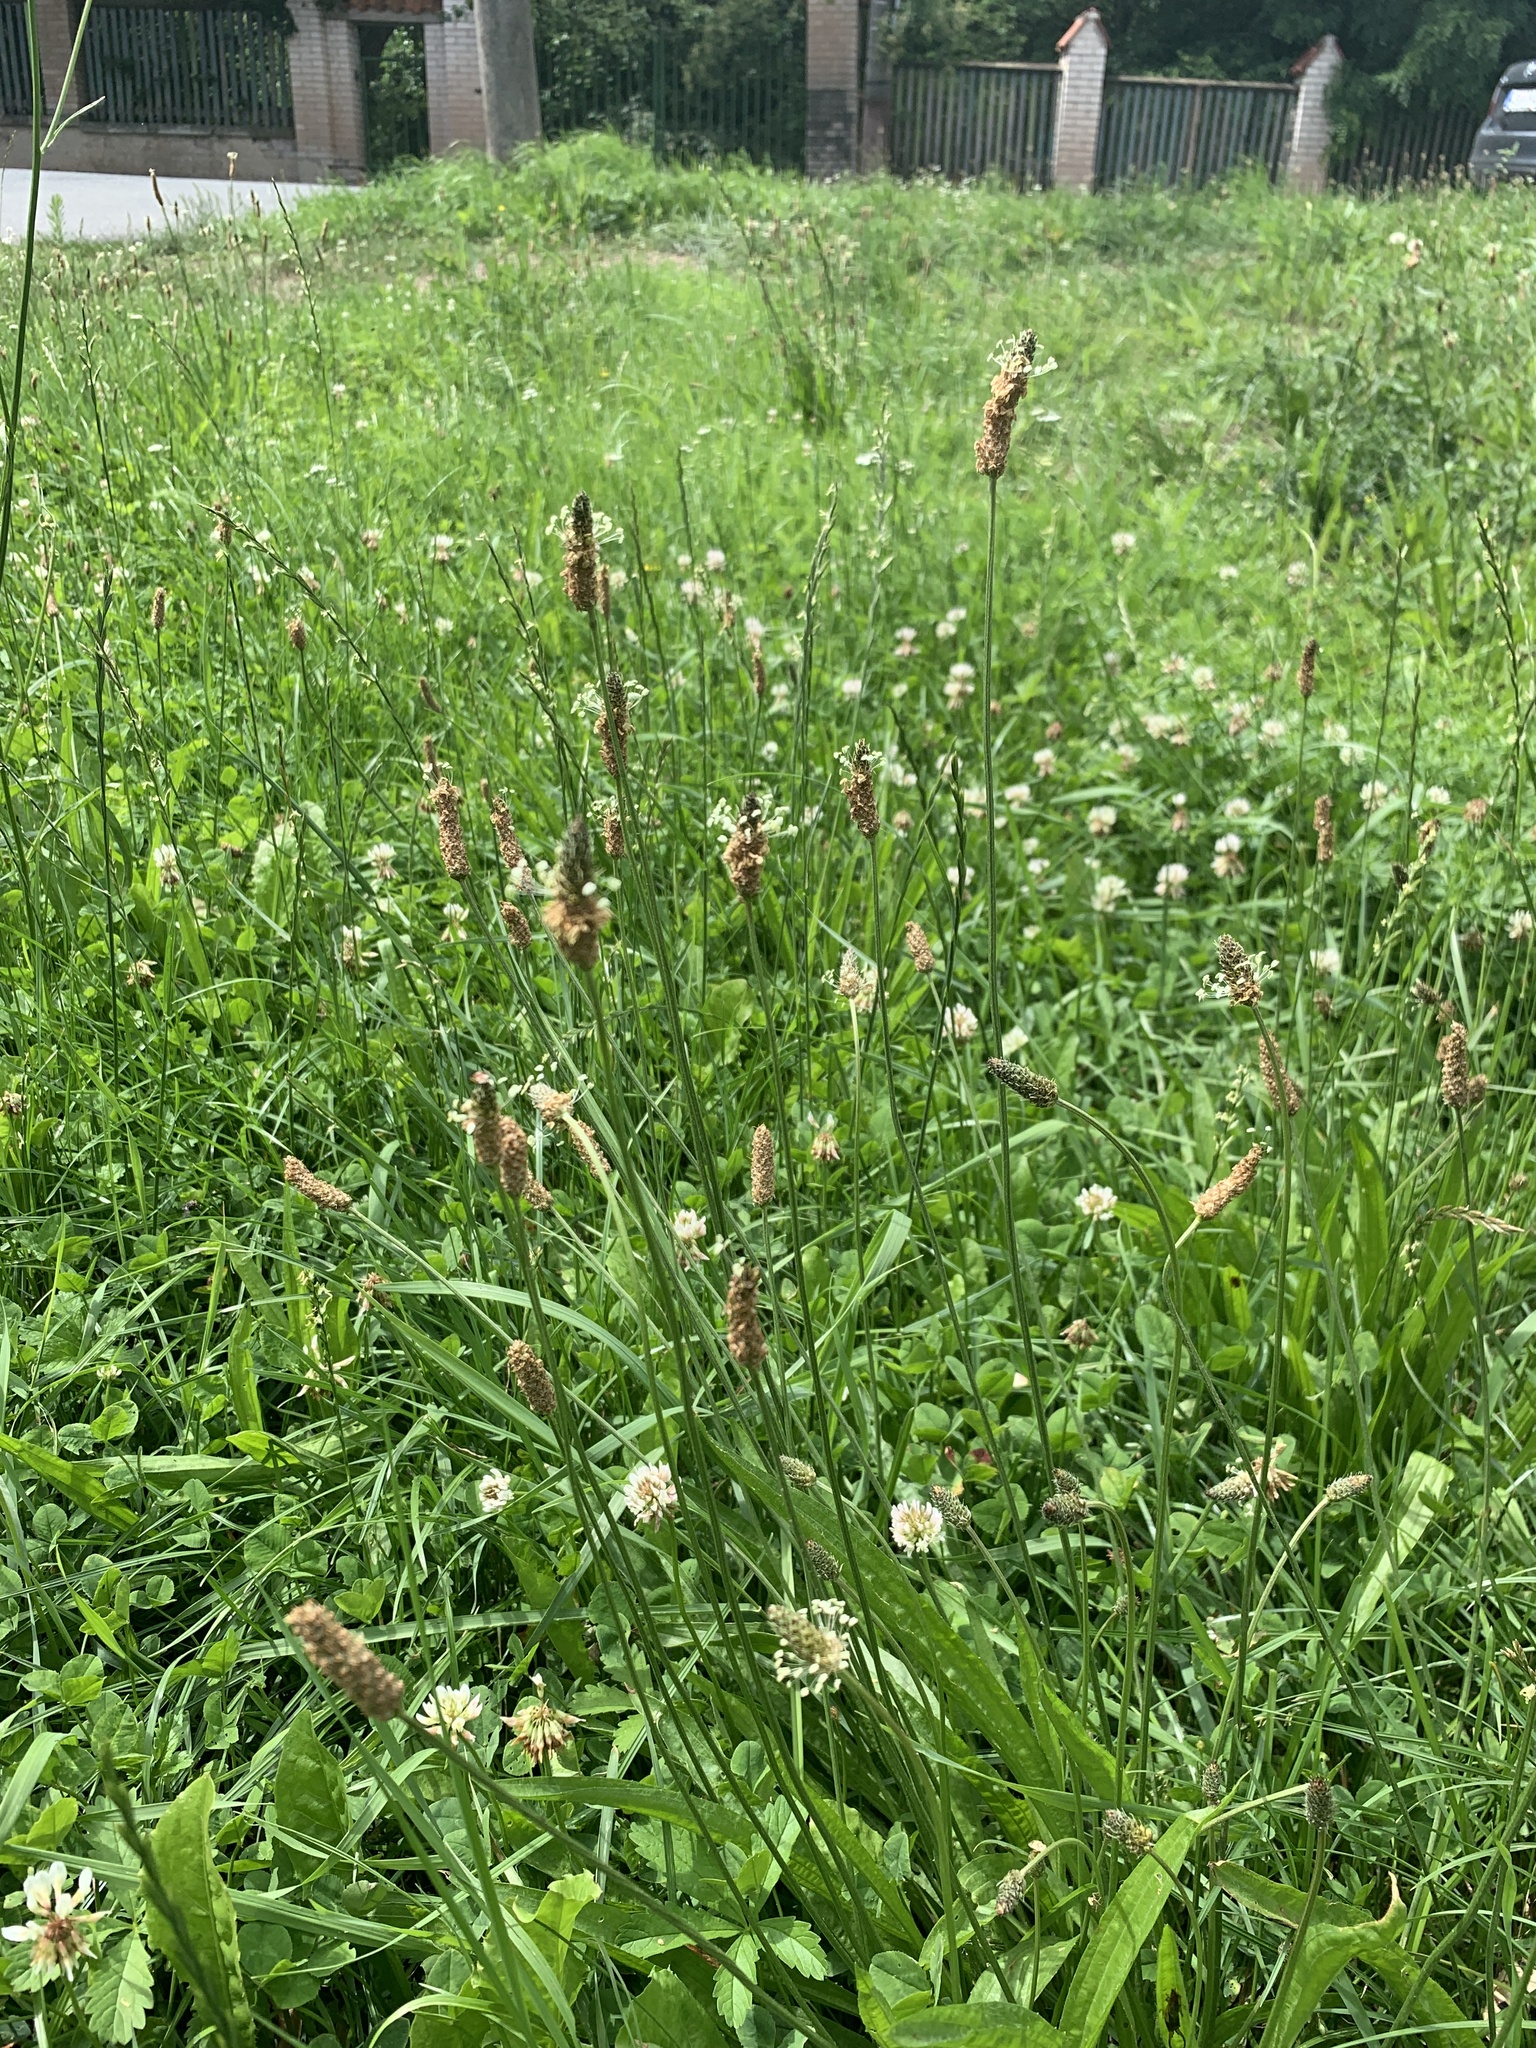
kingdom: Plantae
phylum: Tracheophyta
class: Magnoliopsida
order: Lamiales
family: Plantaginaceae
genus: Plantago
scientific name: Plantago lanceolata
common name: Ribwort plantain
